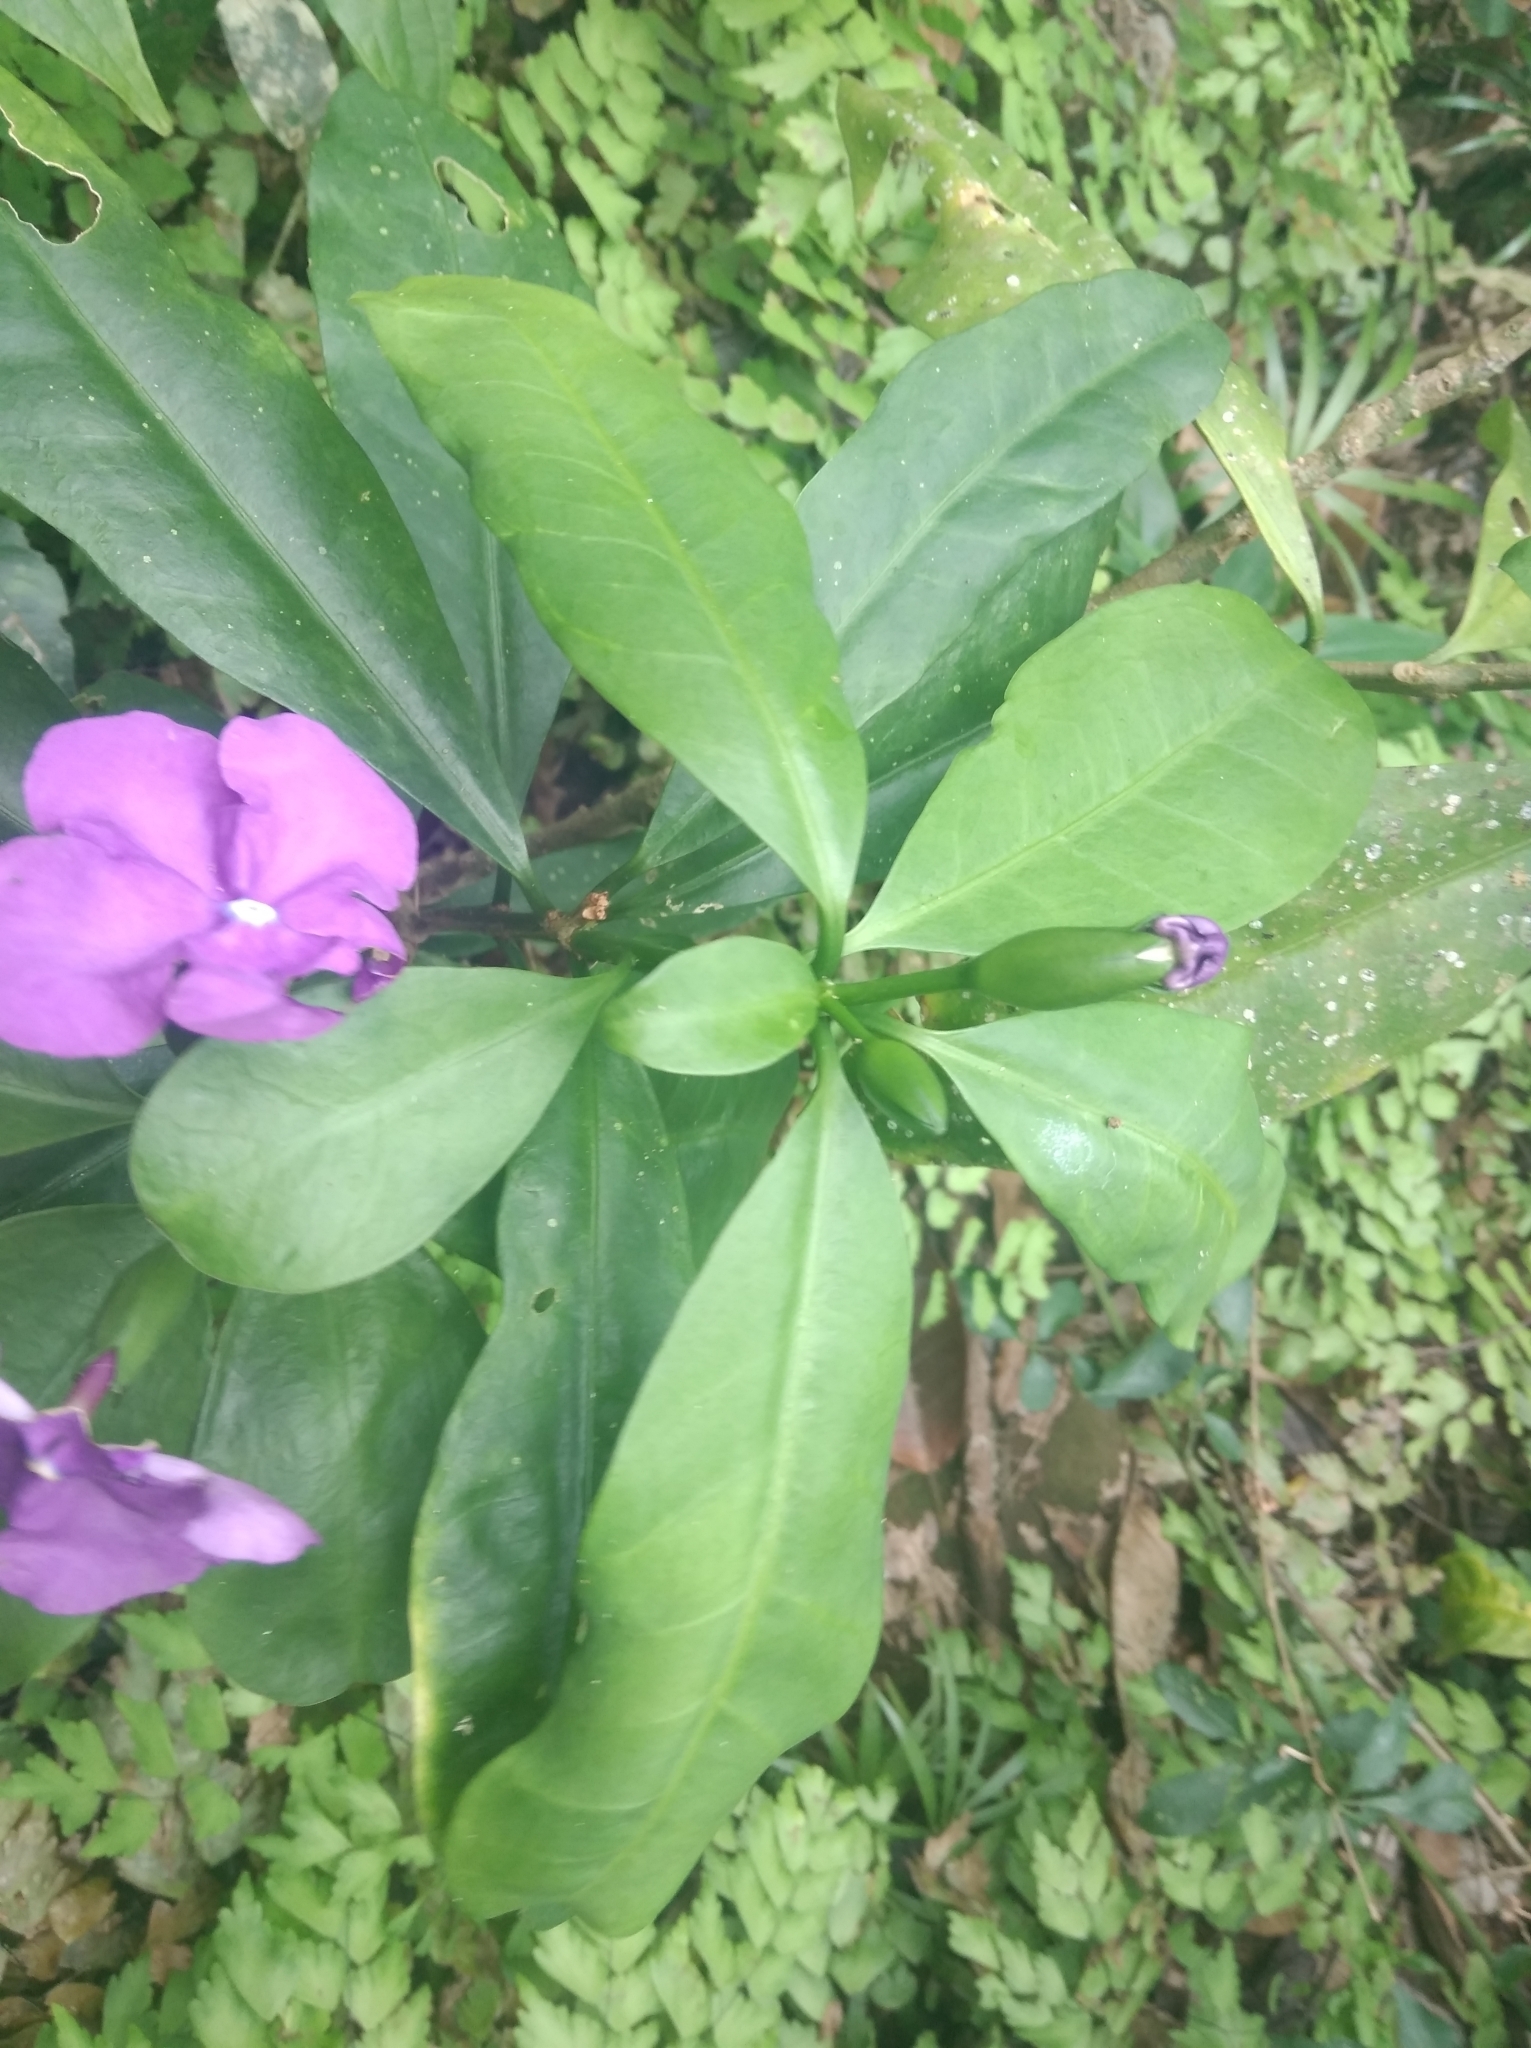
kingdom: Plantae
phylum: Tracheophyta
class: Magnoliopsida
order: Solanales
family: Solanaceae
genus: Brunfelsia
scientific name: Brunfelsia pauciflora
